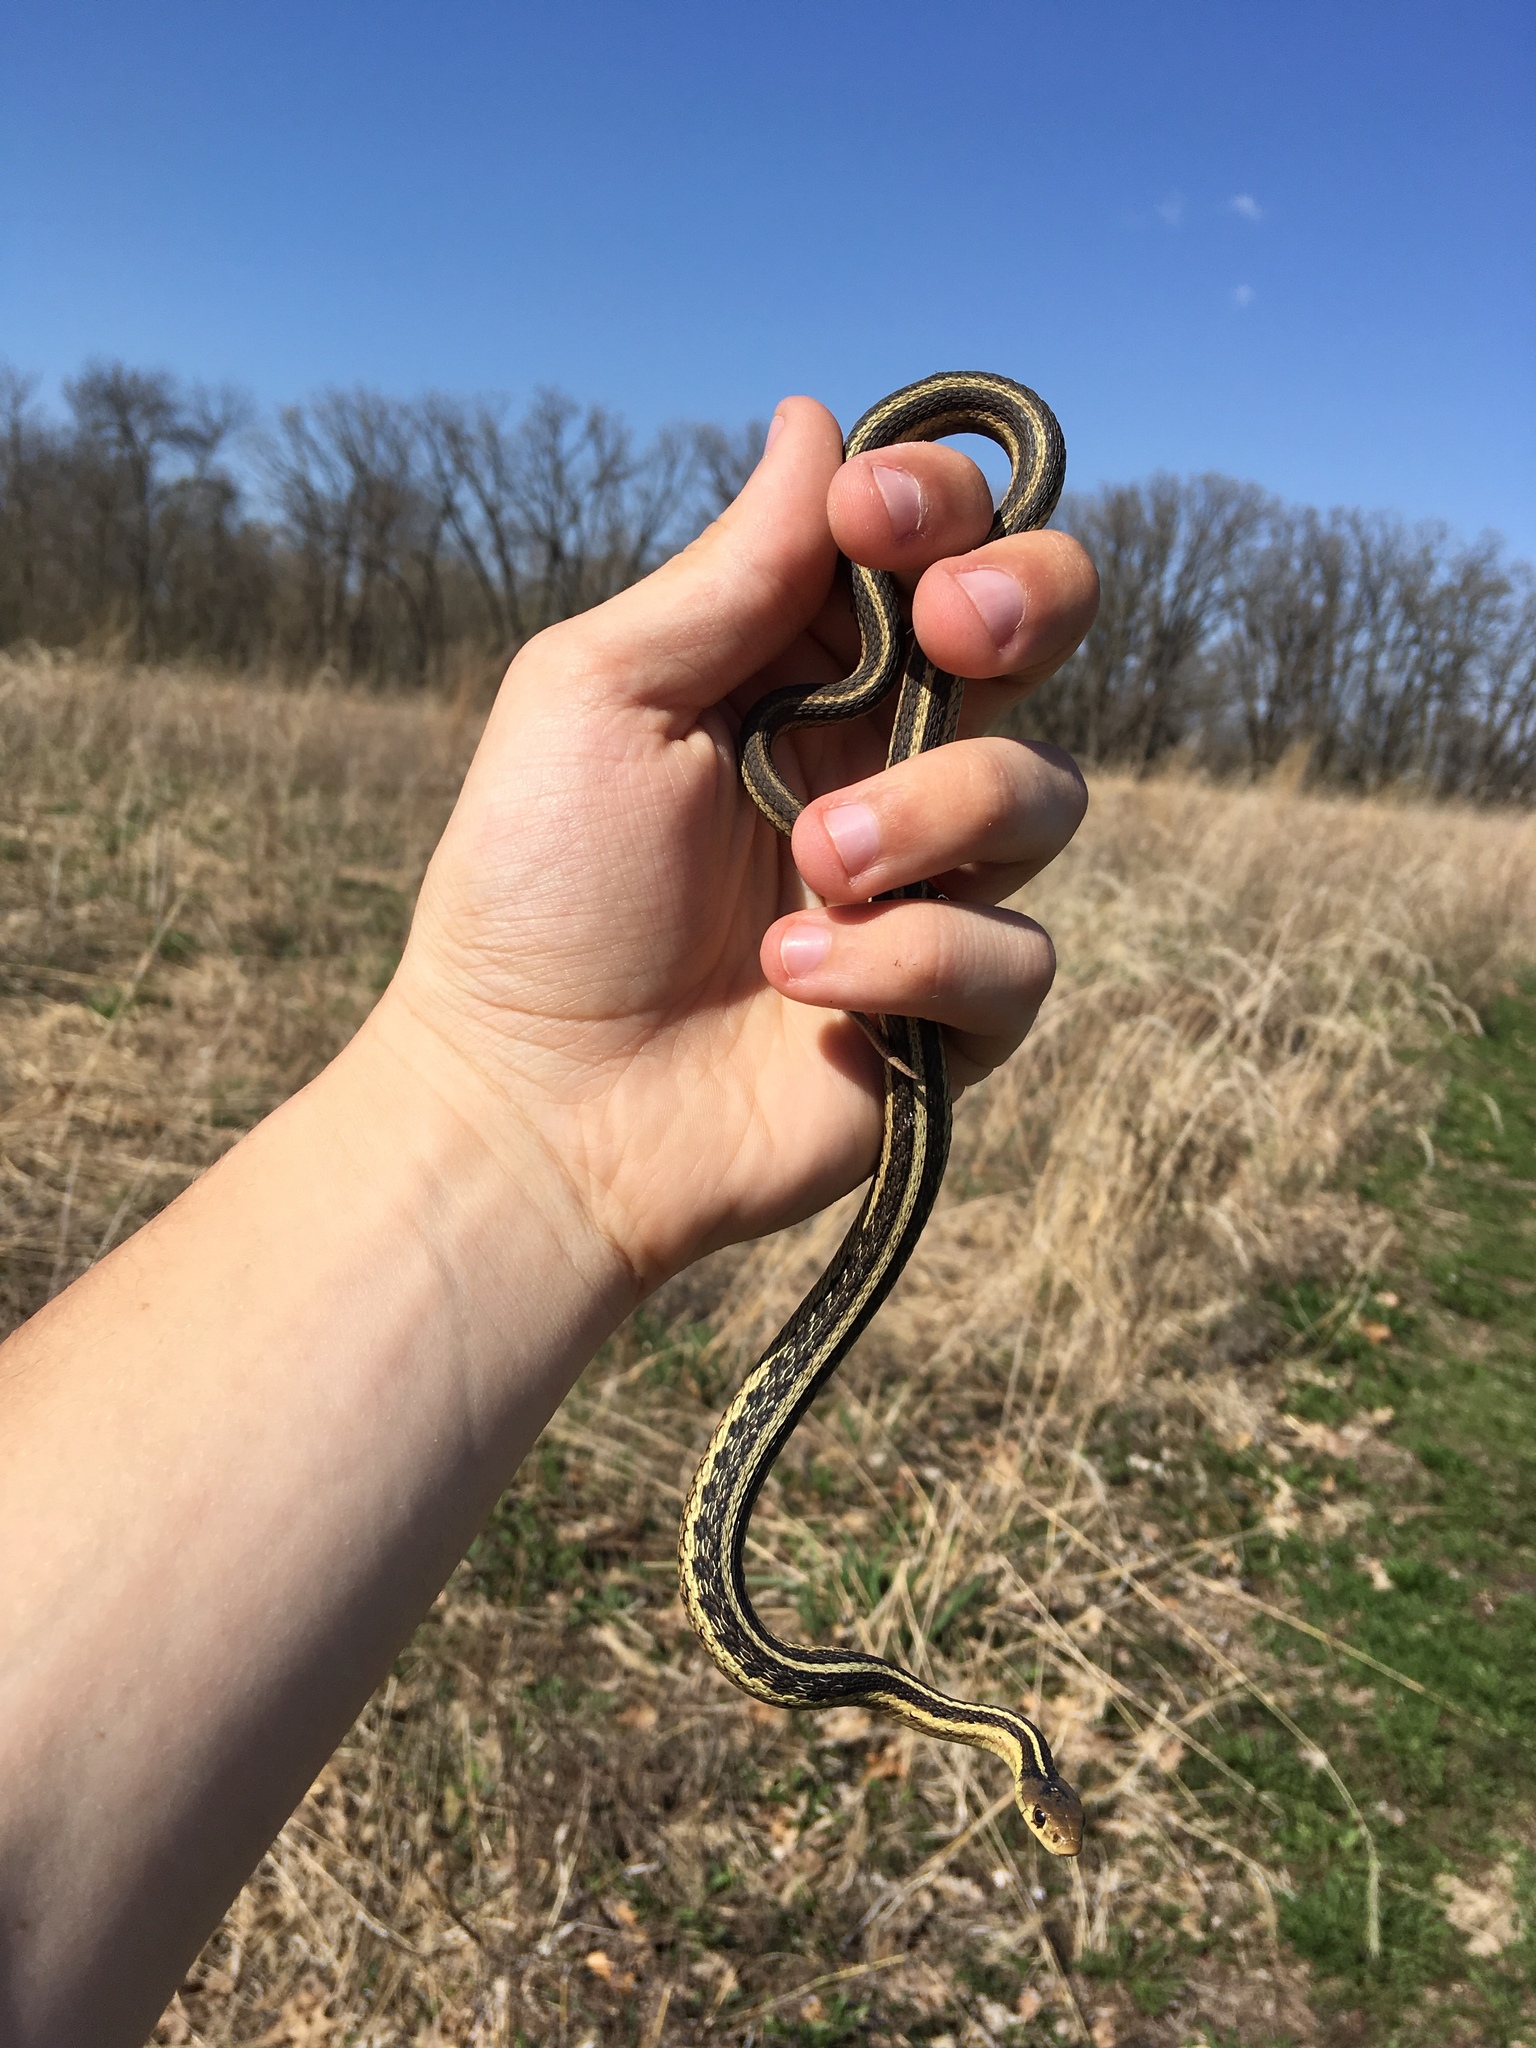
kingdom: Animalia
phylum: Chordata
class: Squamata
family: Colubridae
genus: Thamnophis
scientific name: Thamnophis sirtalis
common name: Common garter snake
